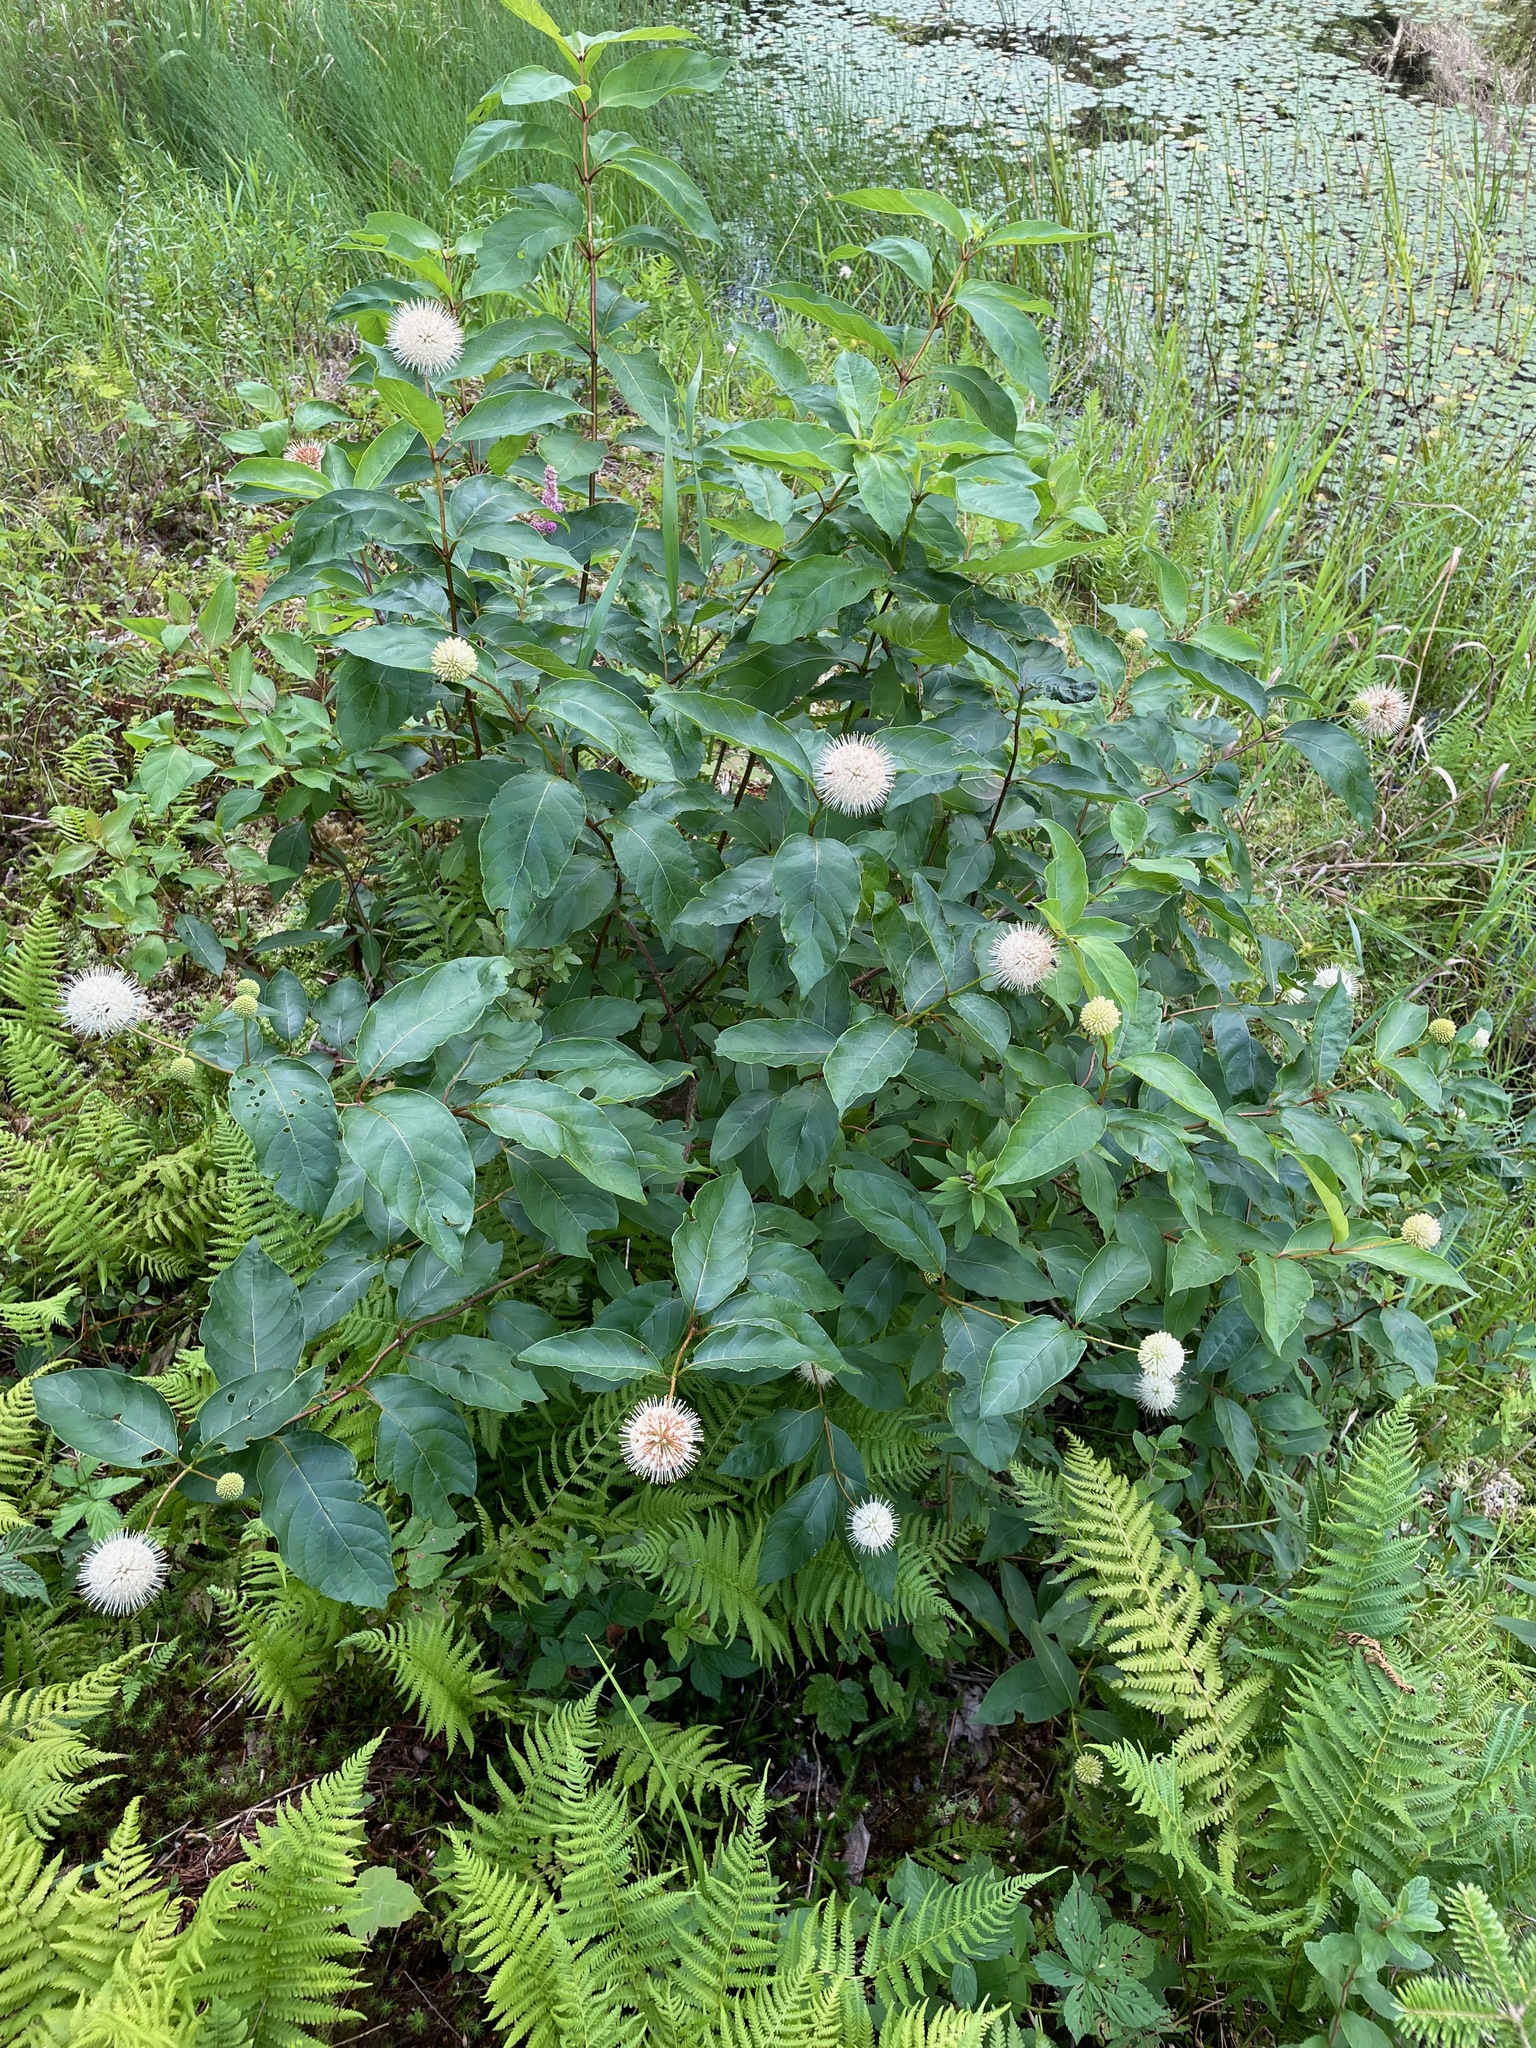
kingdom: Plantae
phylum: Tracheophyta
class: Magnoliopsida
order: Gentianales
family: Rubiaceae
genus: Cephalanthus
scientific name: Cephalanthus occidentalis
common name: Button-willow
